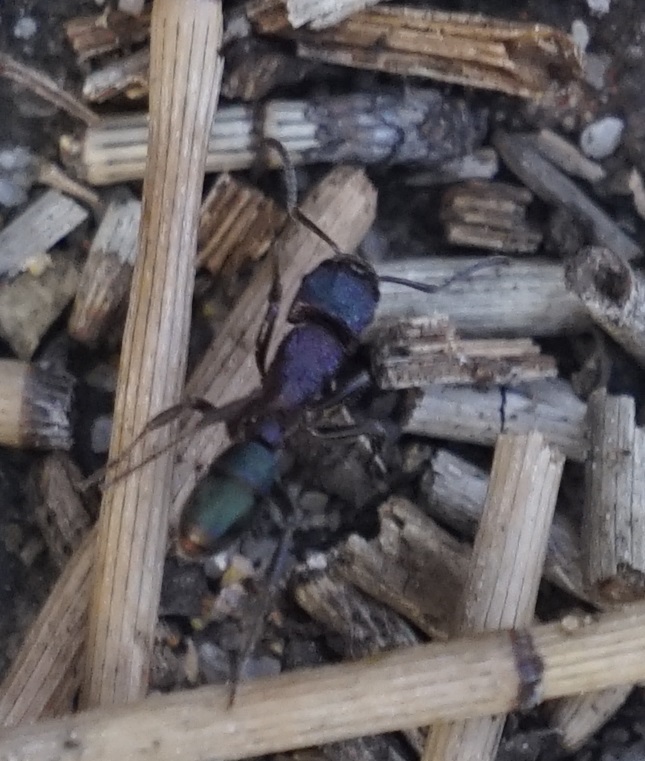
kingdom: Animalia
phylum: Arthropoda
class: Insecta
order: Hymenoptera
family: Formicidae
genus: Rhytidoponera
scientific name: Rhytidoponera metallica
